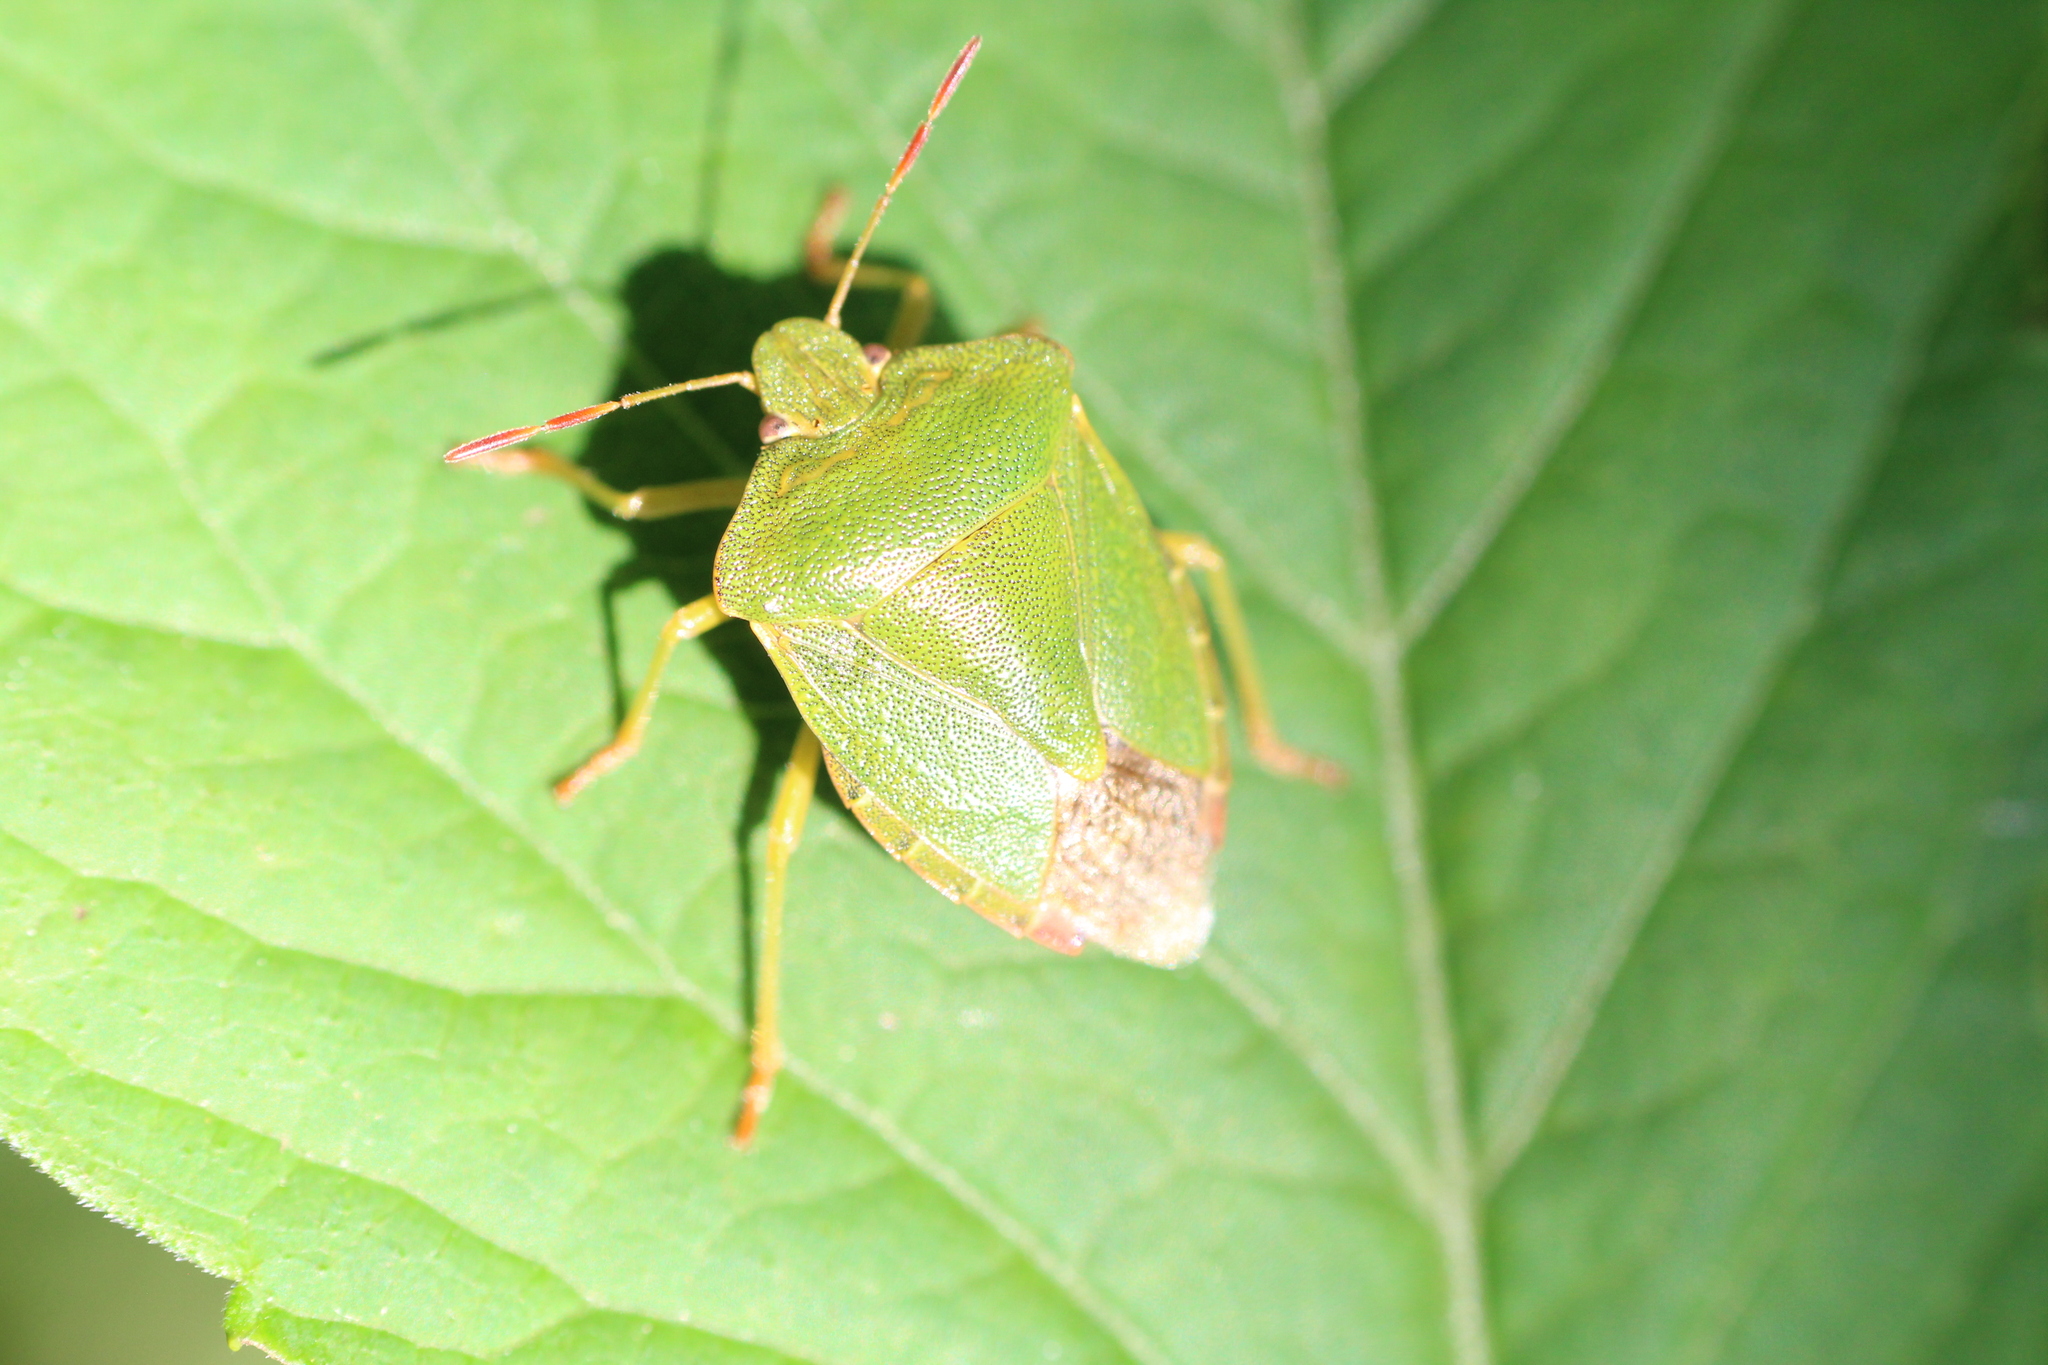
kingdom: Animalia
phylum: Arthropoda
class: Insecta
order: Hemiptera
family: Pentatomidae
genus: Palomena
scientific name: Palomena prasina
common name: Green shieldbug
